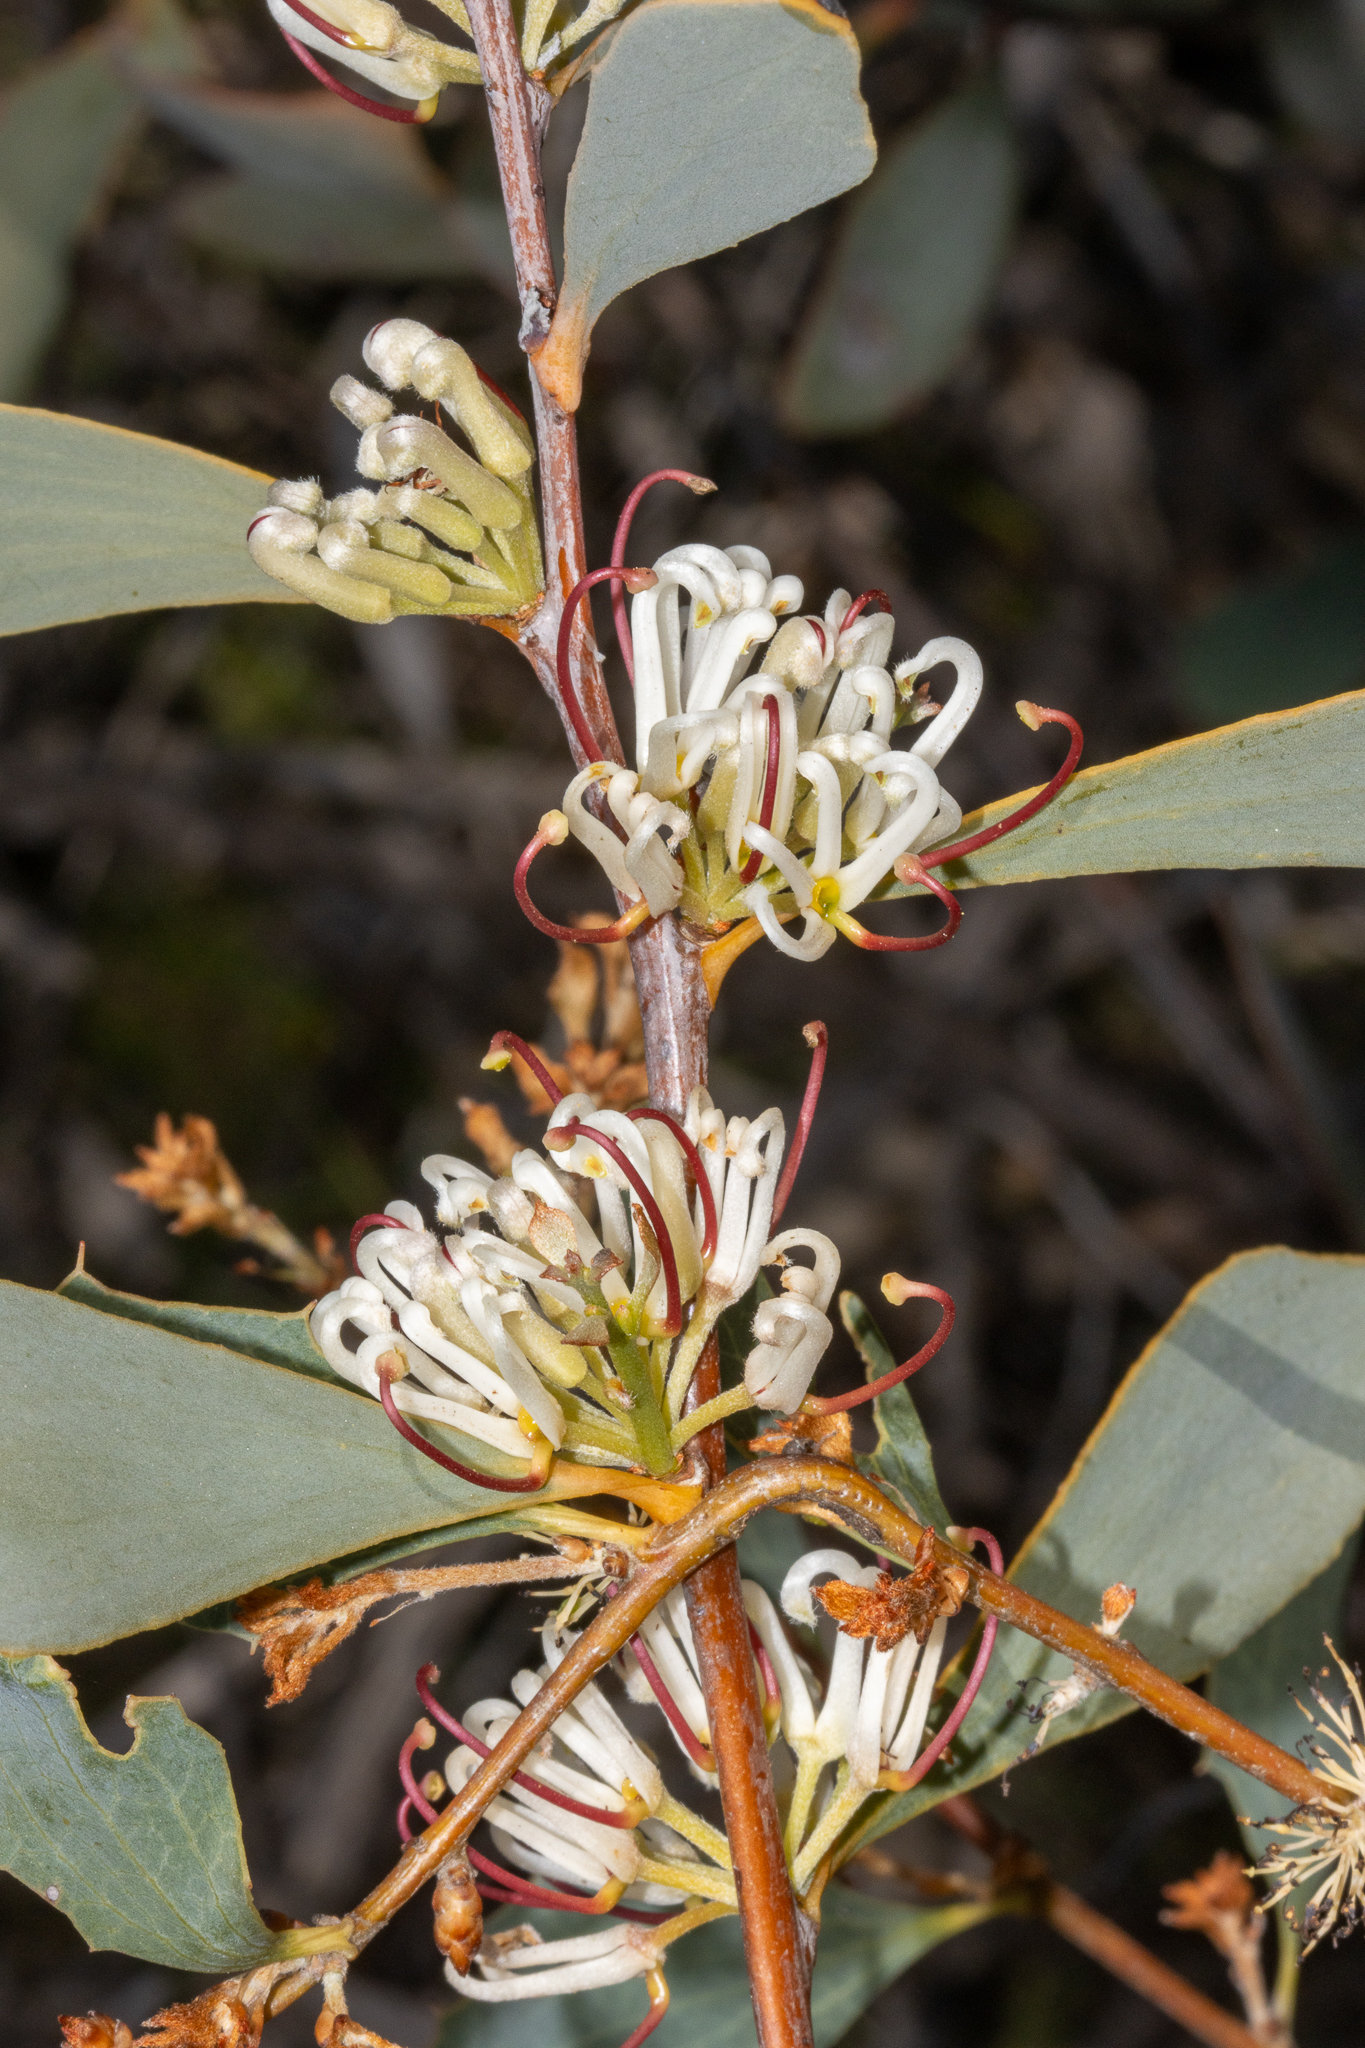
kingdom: Plantae
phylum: Tracheophyta
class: Magnoliopsida
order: Proteales
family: Proteaceae
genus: Hakea
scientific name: Hakea cyclocarpa
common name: Curved-fruit hakea
